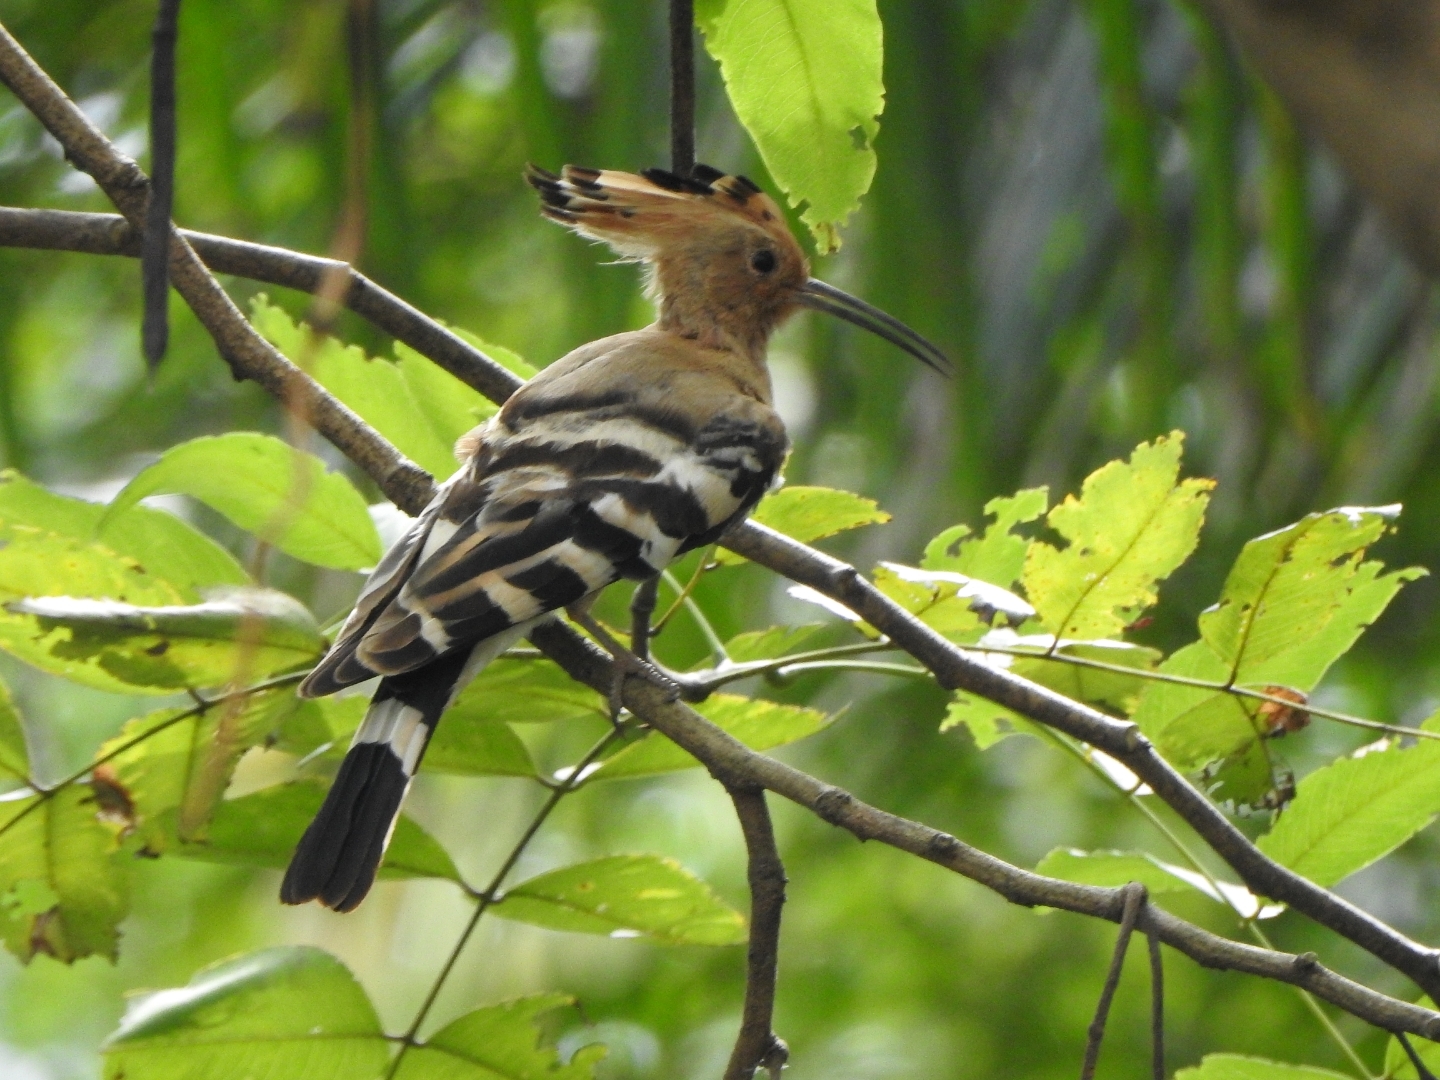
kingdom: Animalia
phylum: Chordata
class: Aves
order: Bucerotiformes
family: Upupidae
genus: Upupa
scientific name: Upupa epops
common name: Eurasian hoopoe
